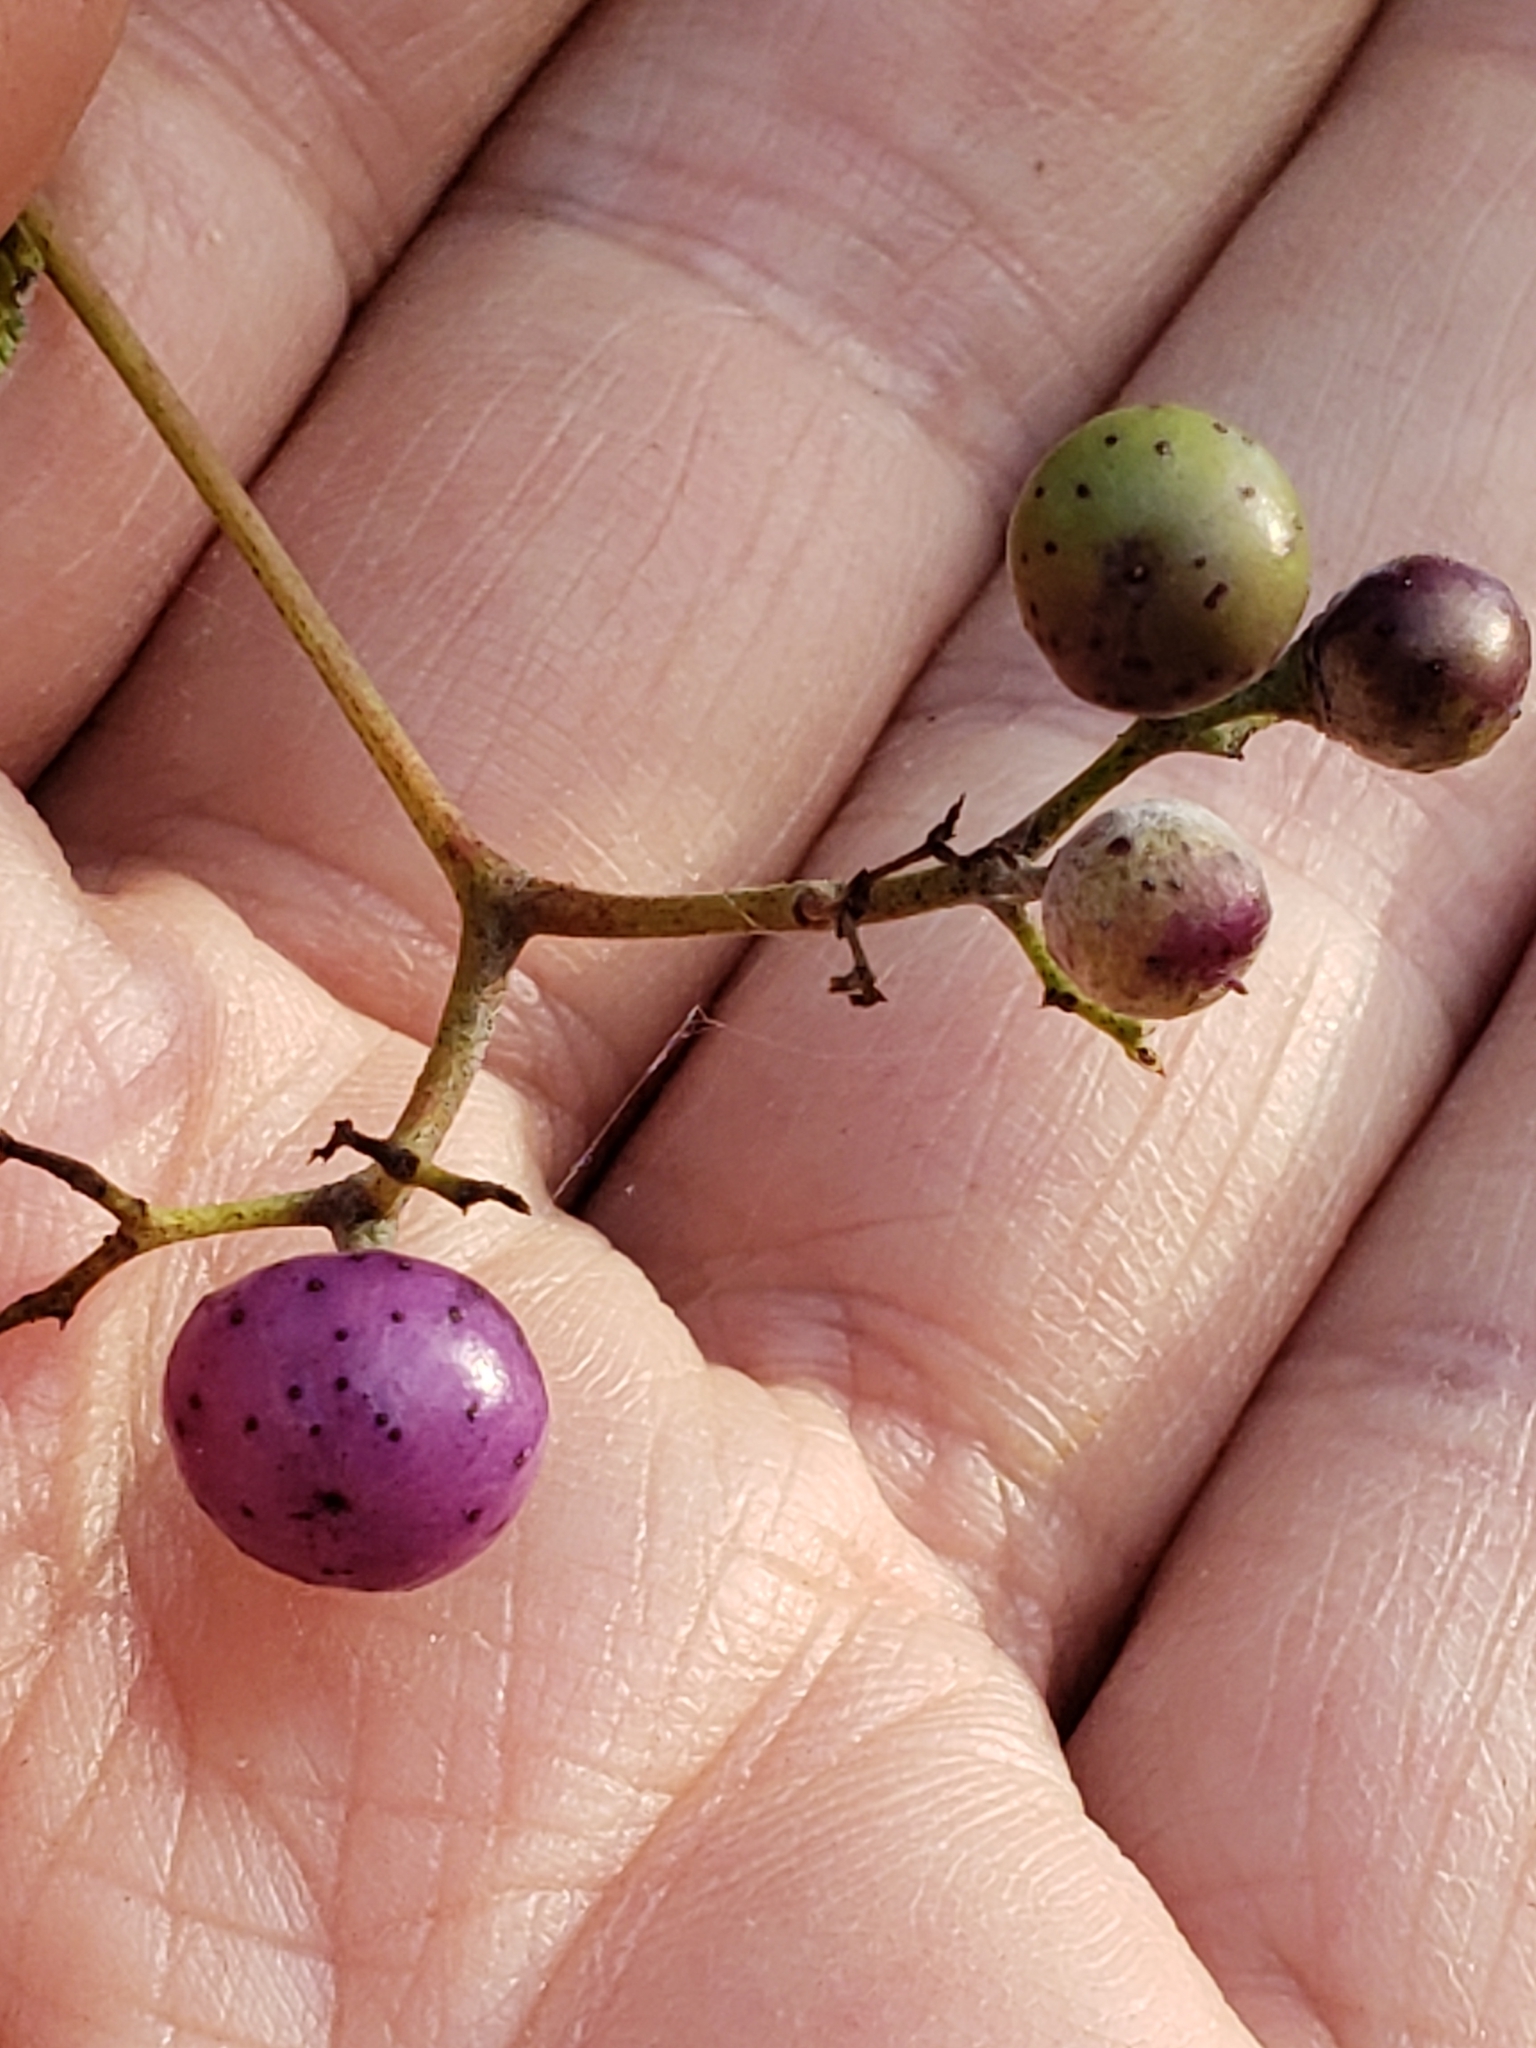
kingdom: Plantae
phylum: Tracheophyta
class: Magnoliopsida
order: Vitales
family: Vitaceae
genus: Ampelopsis
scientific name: Ampelopsis glandulosa
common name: Amur peppervine
